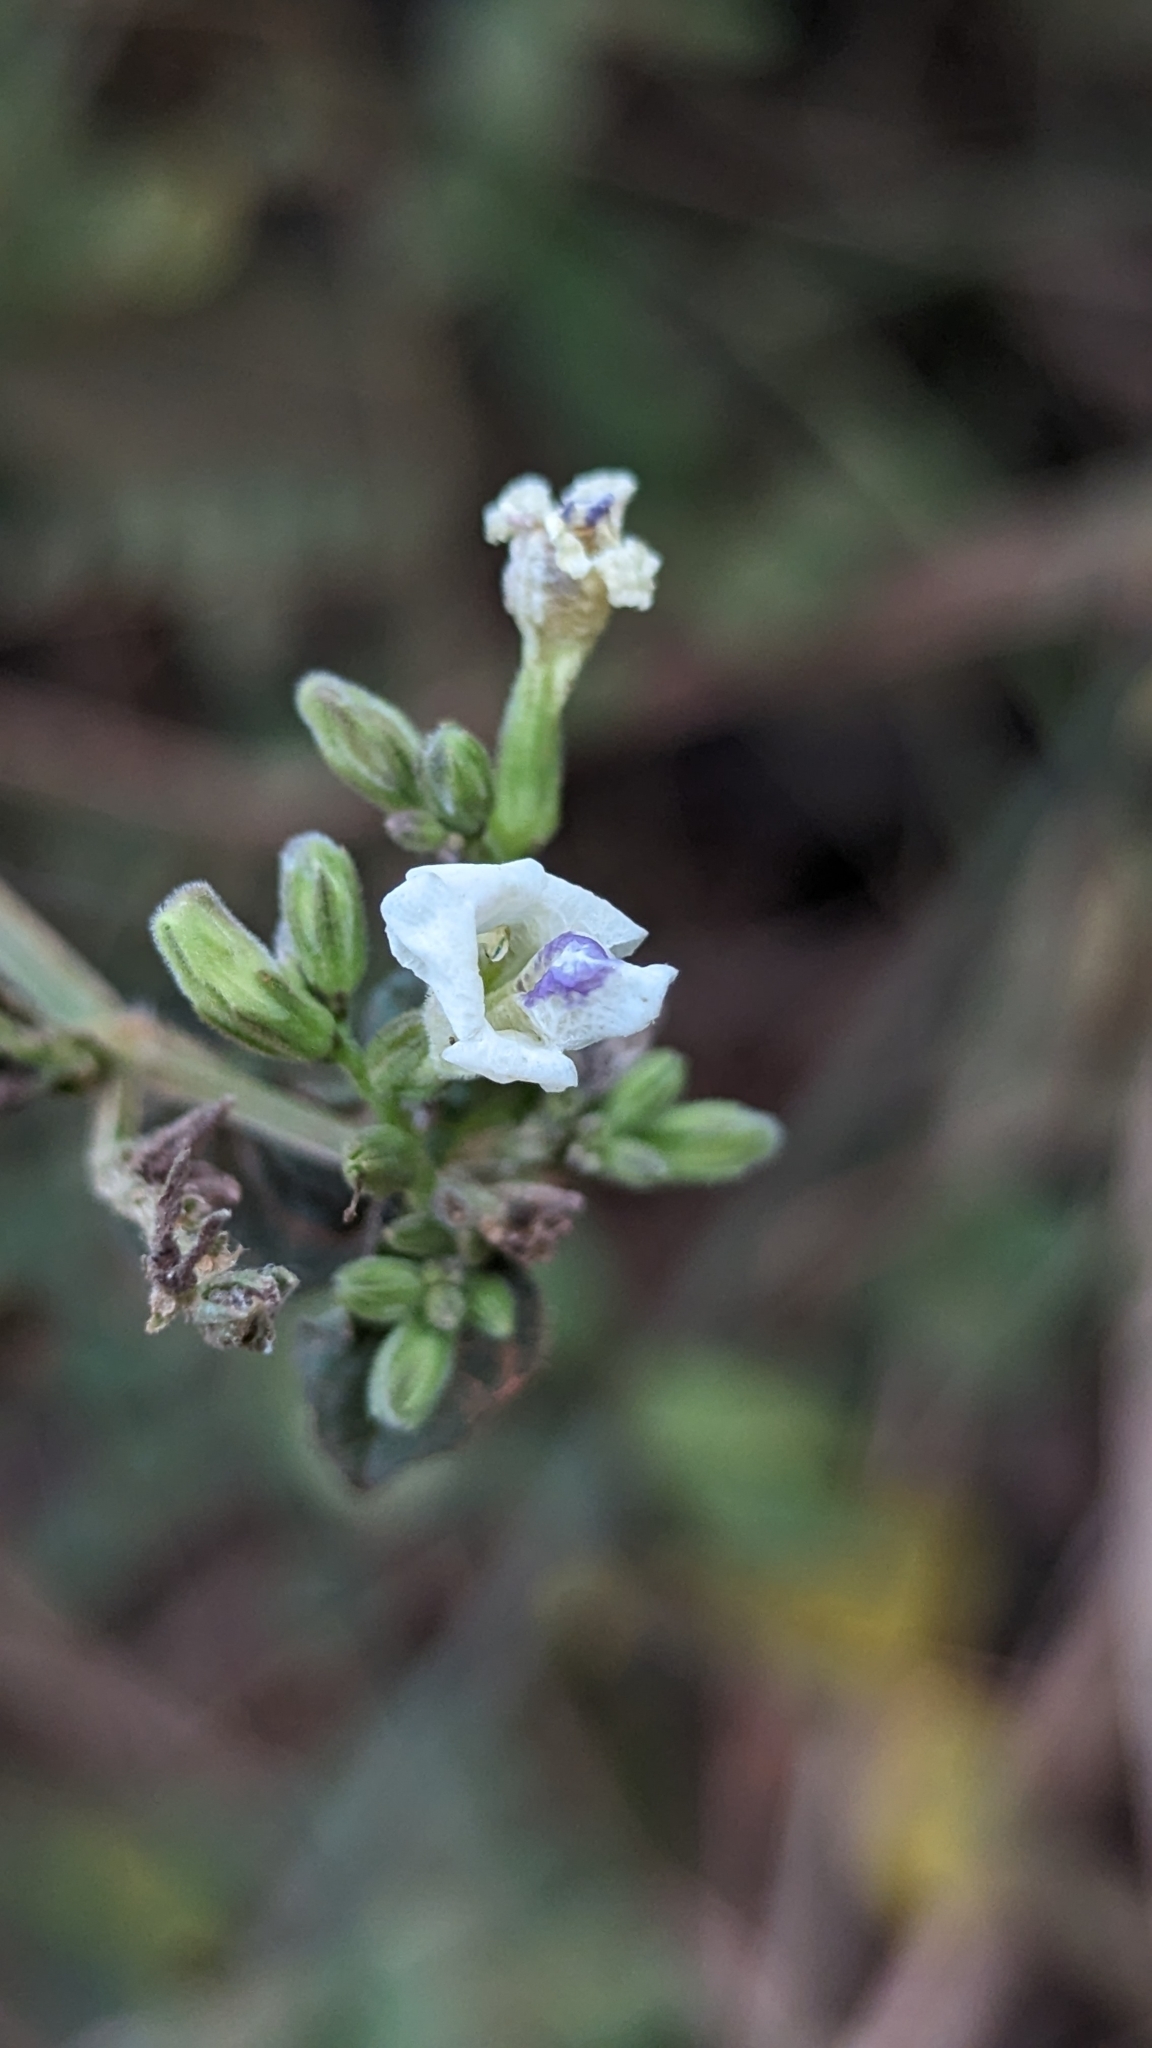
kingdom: Plantae
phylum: Tracheophyta
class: Magnoliopsida
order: Lamiales
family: Acanthaceae
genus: Asystasia
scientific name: Asystasia intrusa
